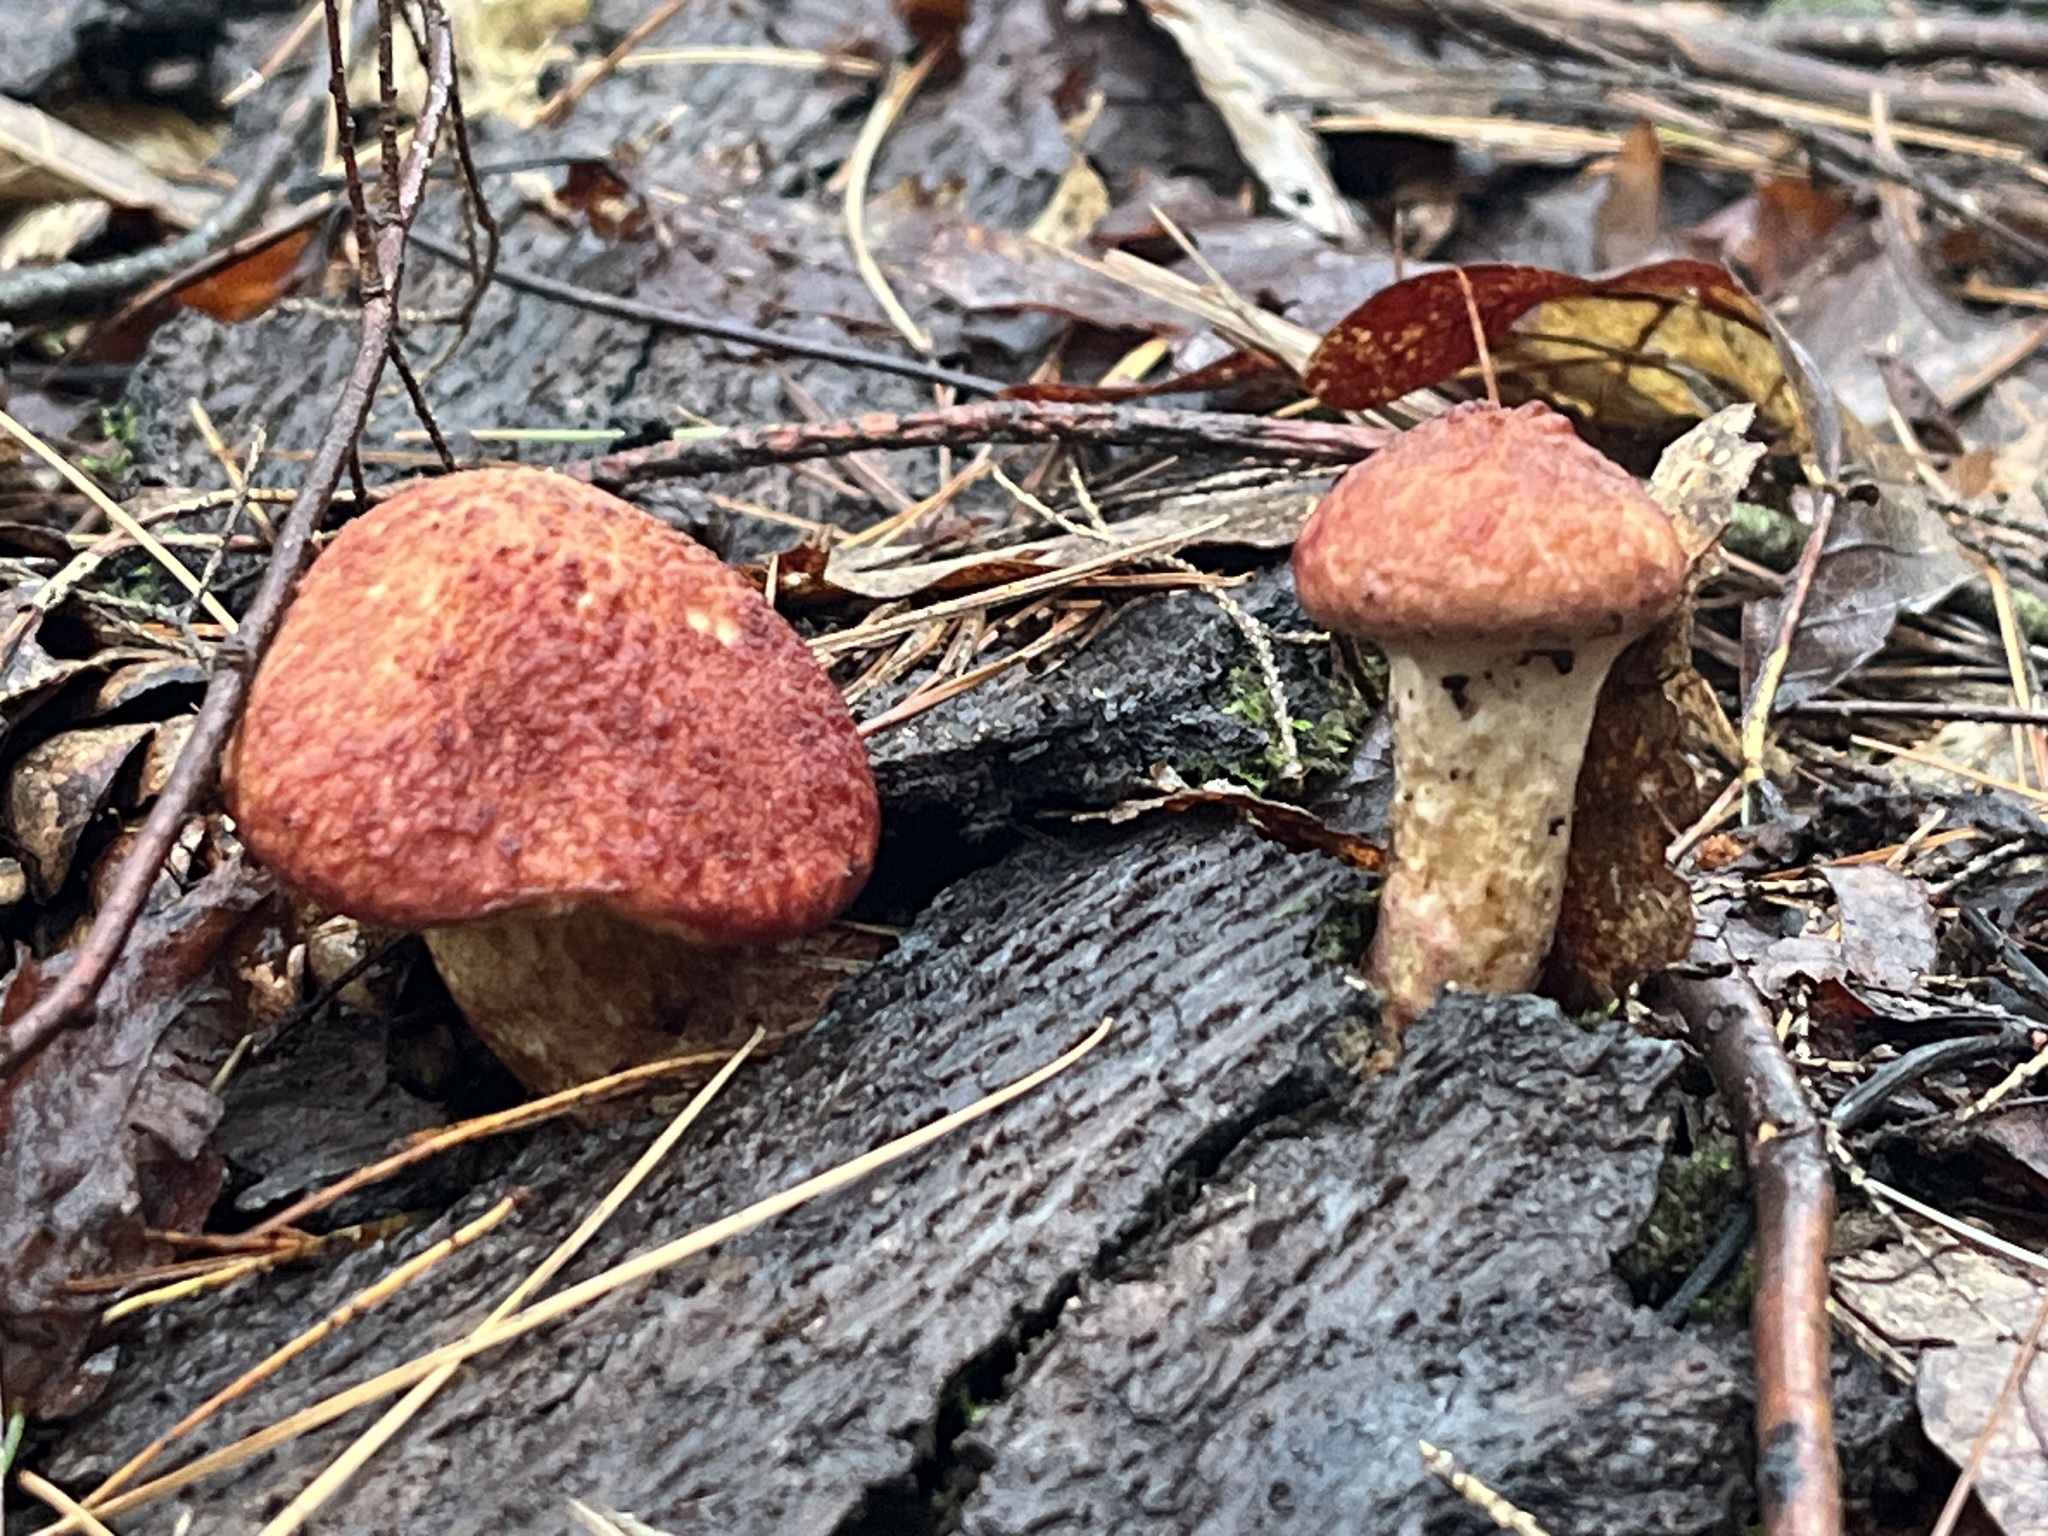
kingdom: Fungi
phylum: Basidiomycota
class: Agaricomycetes
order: Boletales
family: Suillaceae
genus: Suillus
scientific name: Suillus spraguei
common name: Painted suillus
